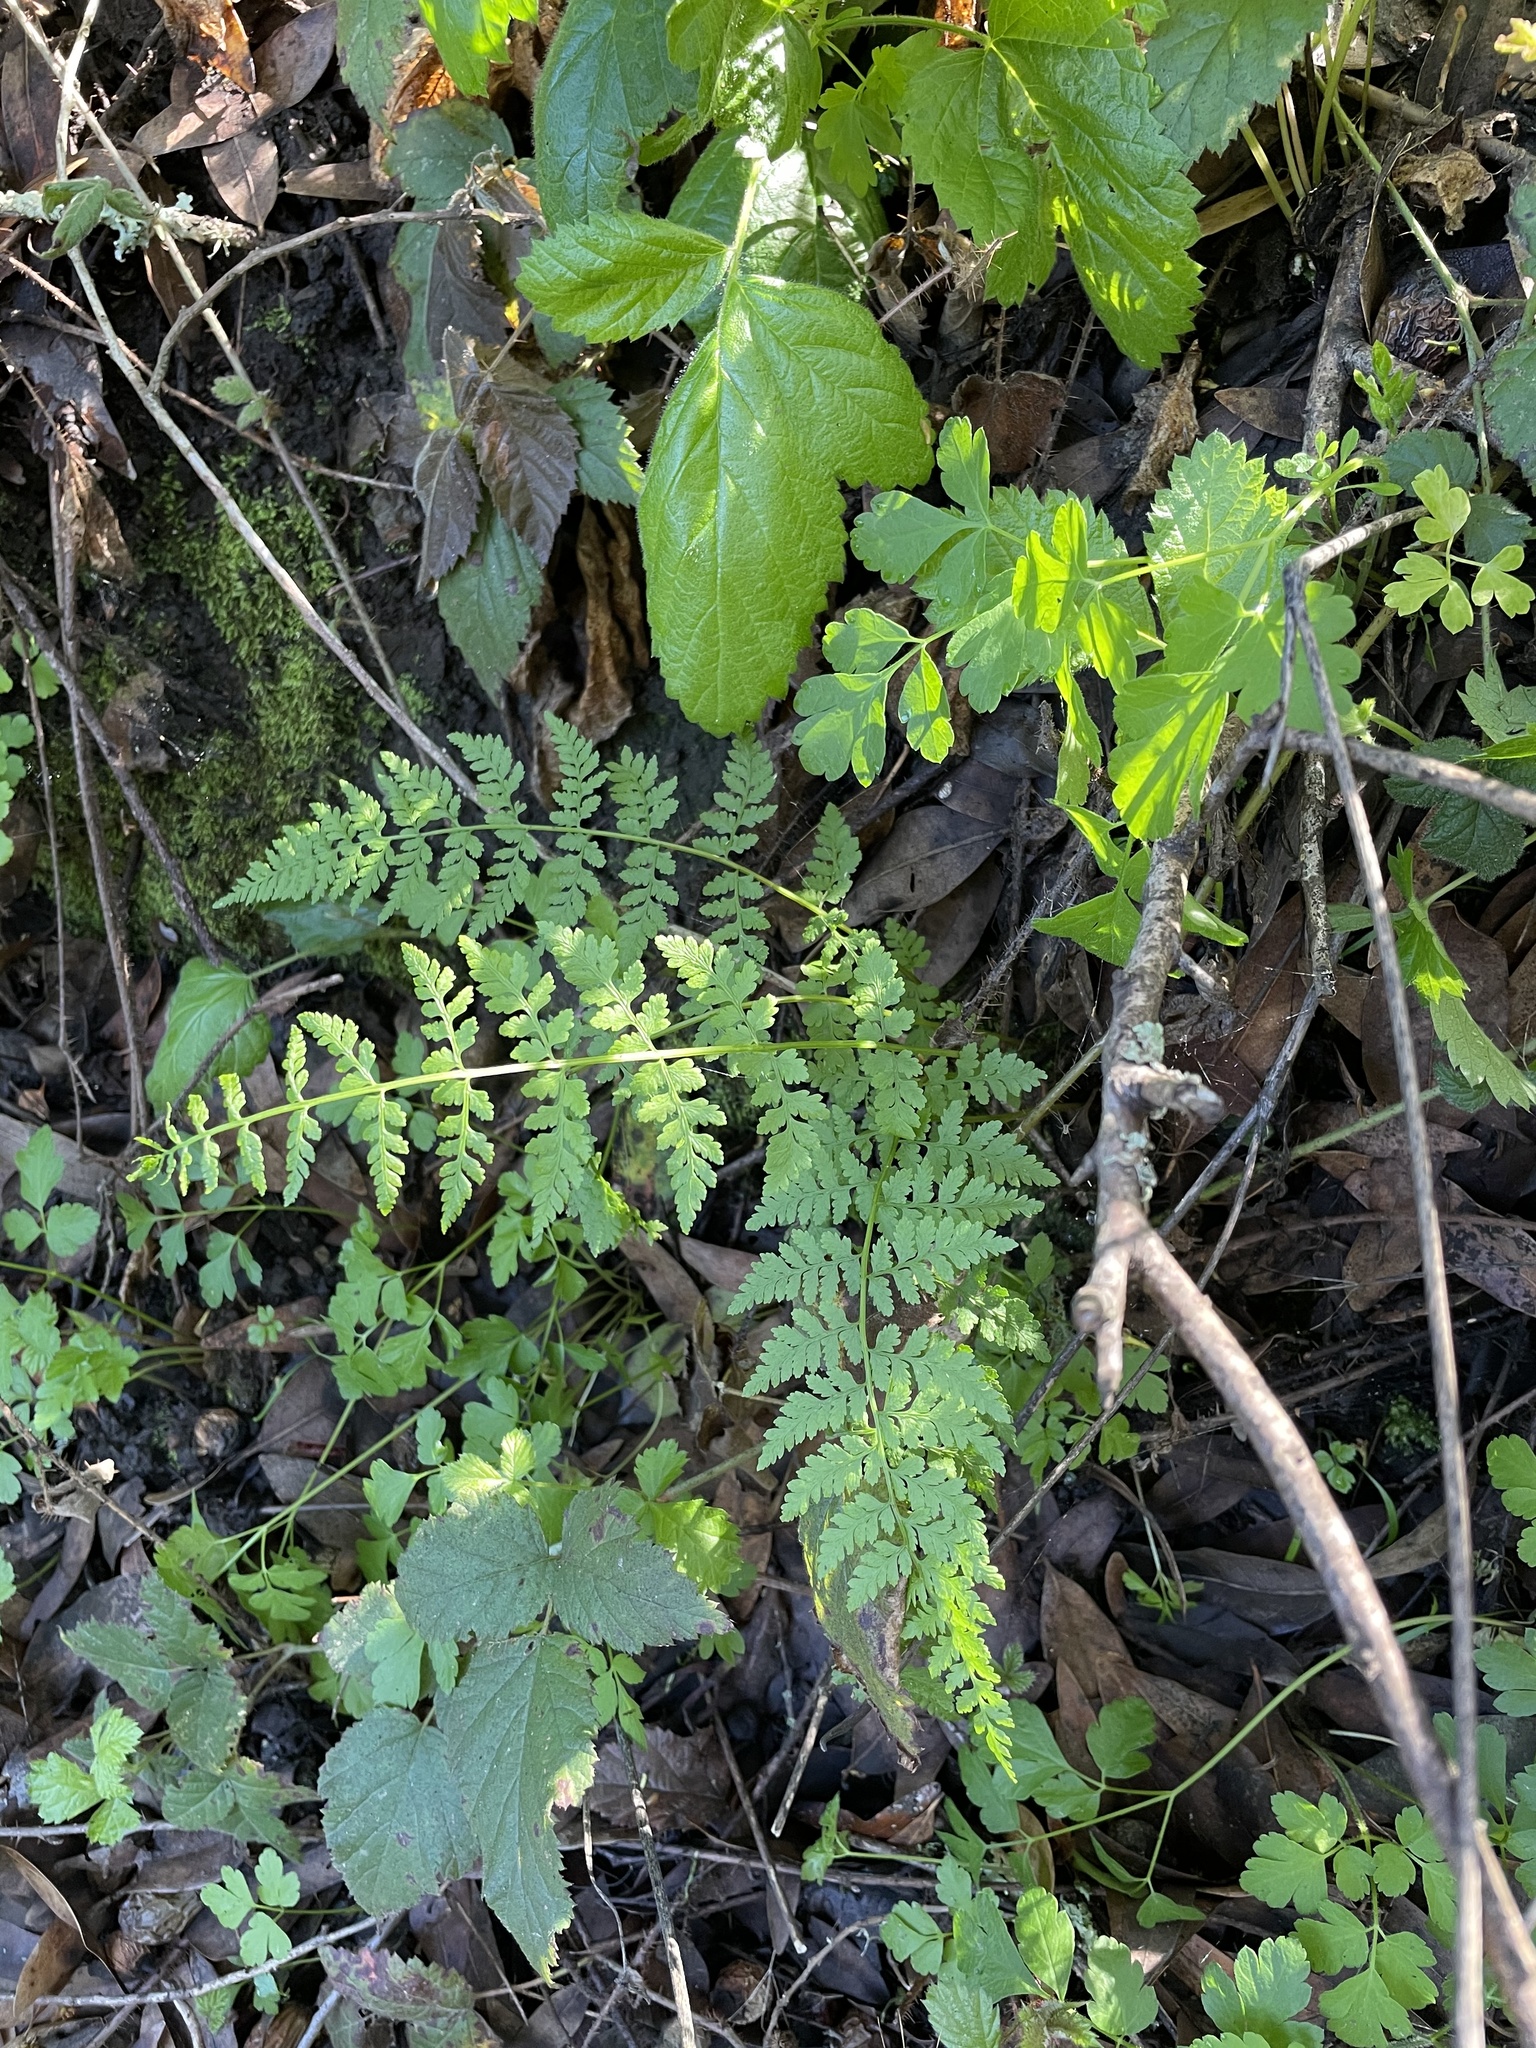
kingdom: Plantae
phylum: Tracheophyta
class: Polypodiopsida
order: Polypodiales
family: Cystopteridaceae
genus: Cystopteris
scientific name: Cystopteris fragilis
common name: Brittle bladder fern
